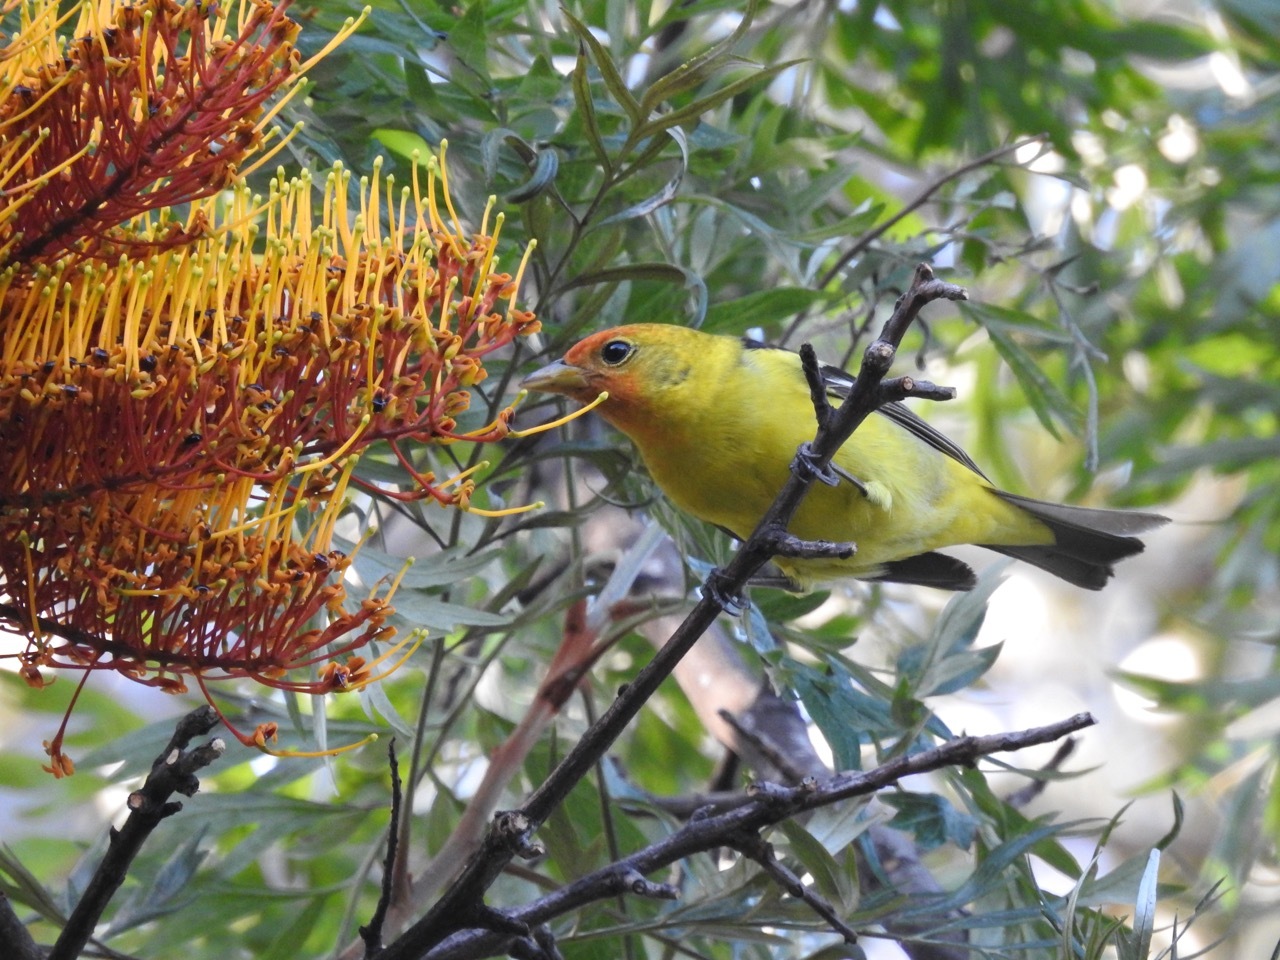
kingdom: Animalia
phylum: Chordata
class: Aves
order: Passeriformes
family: Cardinalidae
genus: Piranga
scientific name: Piranga ludoviciana
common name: Western tanager
